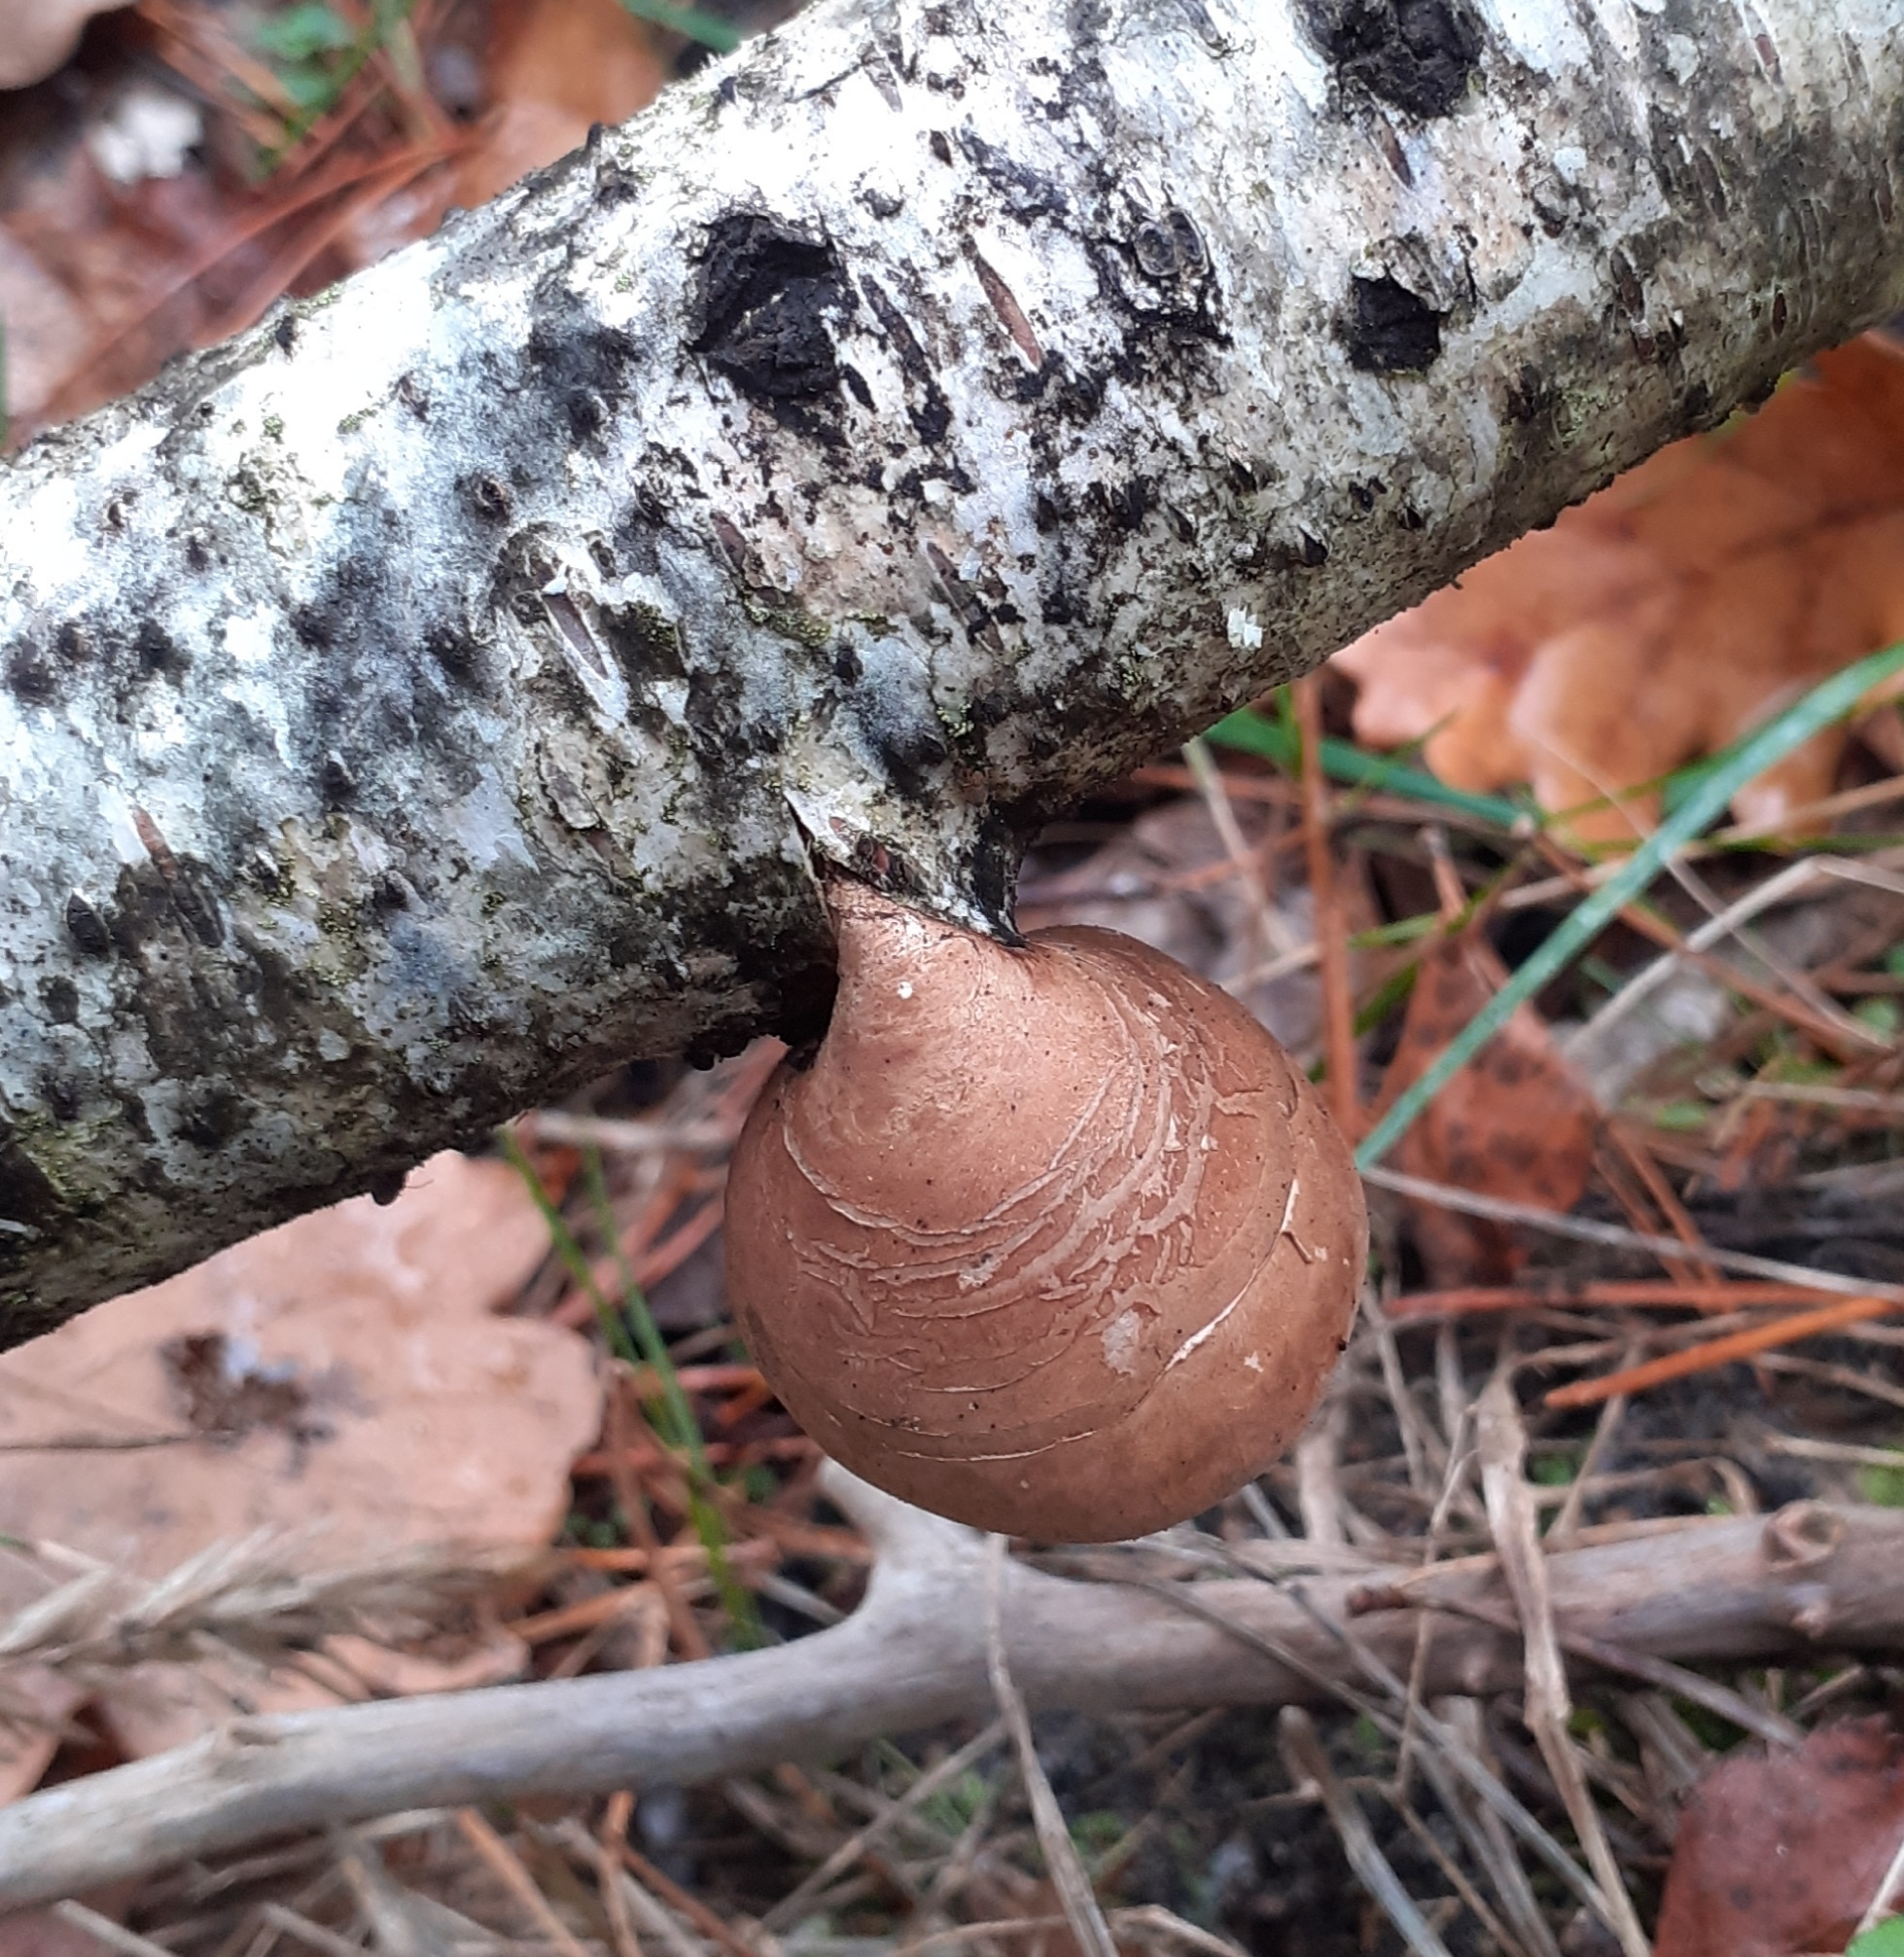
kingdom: Fungi
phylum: Basidiomycota
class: Agaricomycetes
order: Polyporales
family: Fomitopsidaceae
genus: Fomitopsis
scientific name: Fomitopsis betulina
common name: Birch polypore
